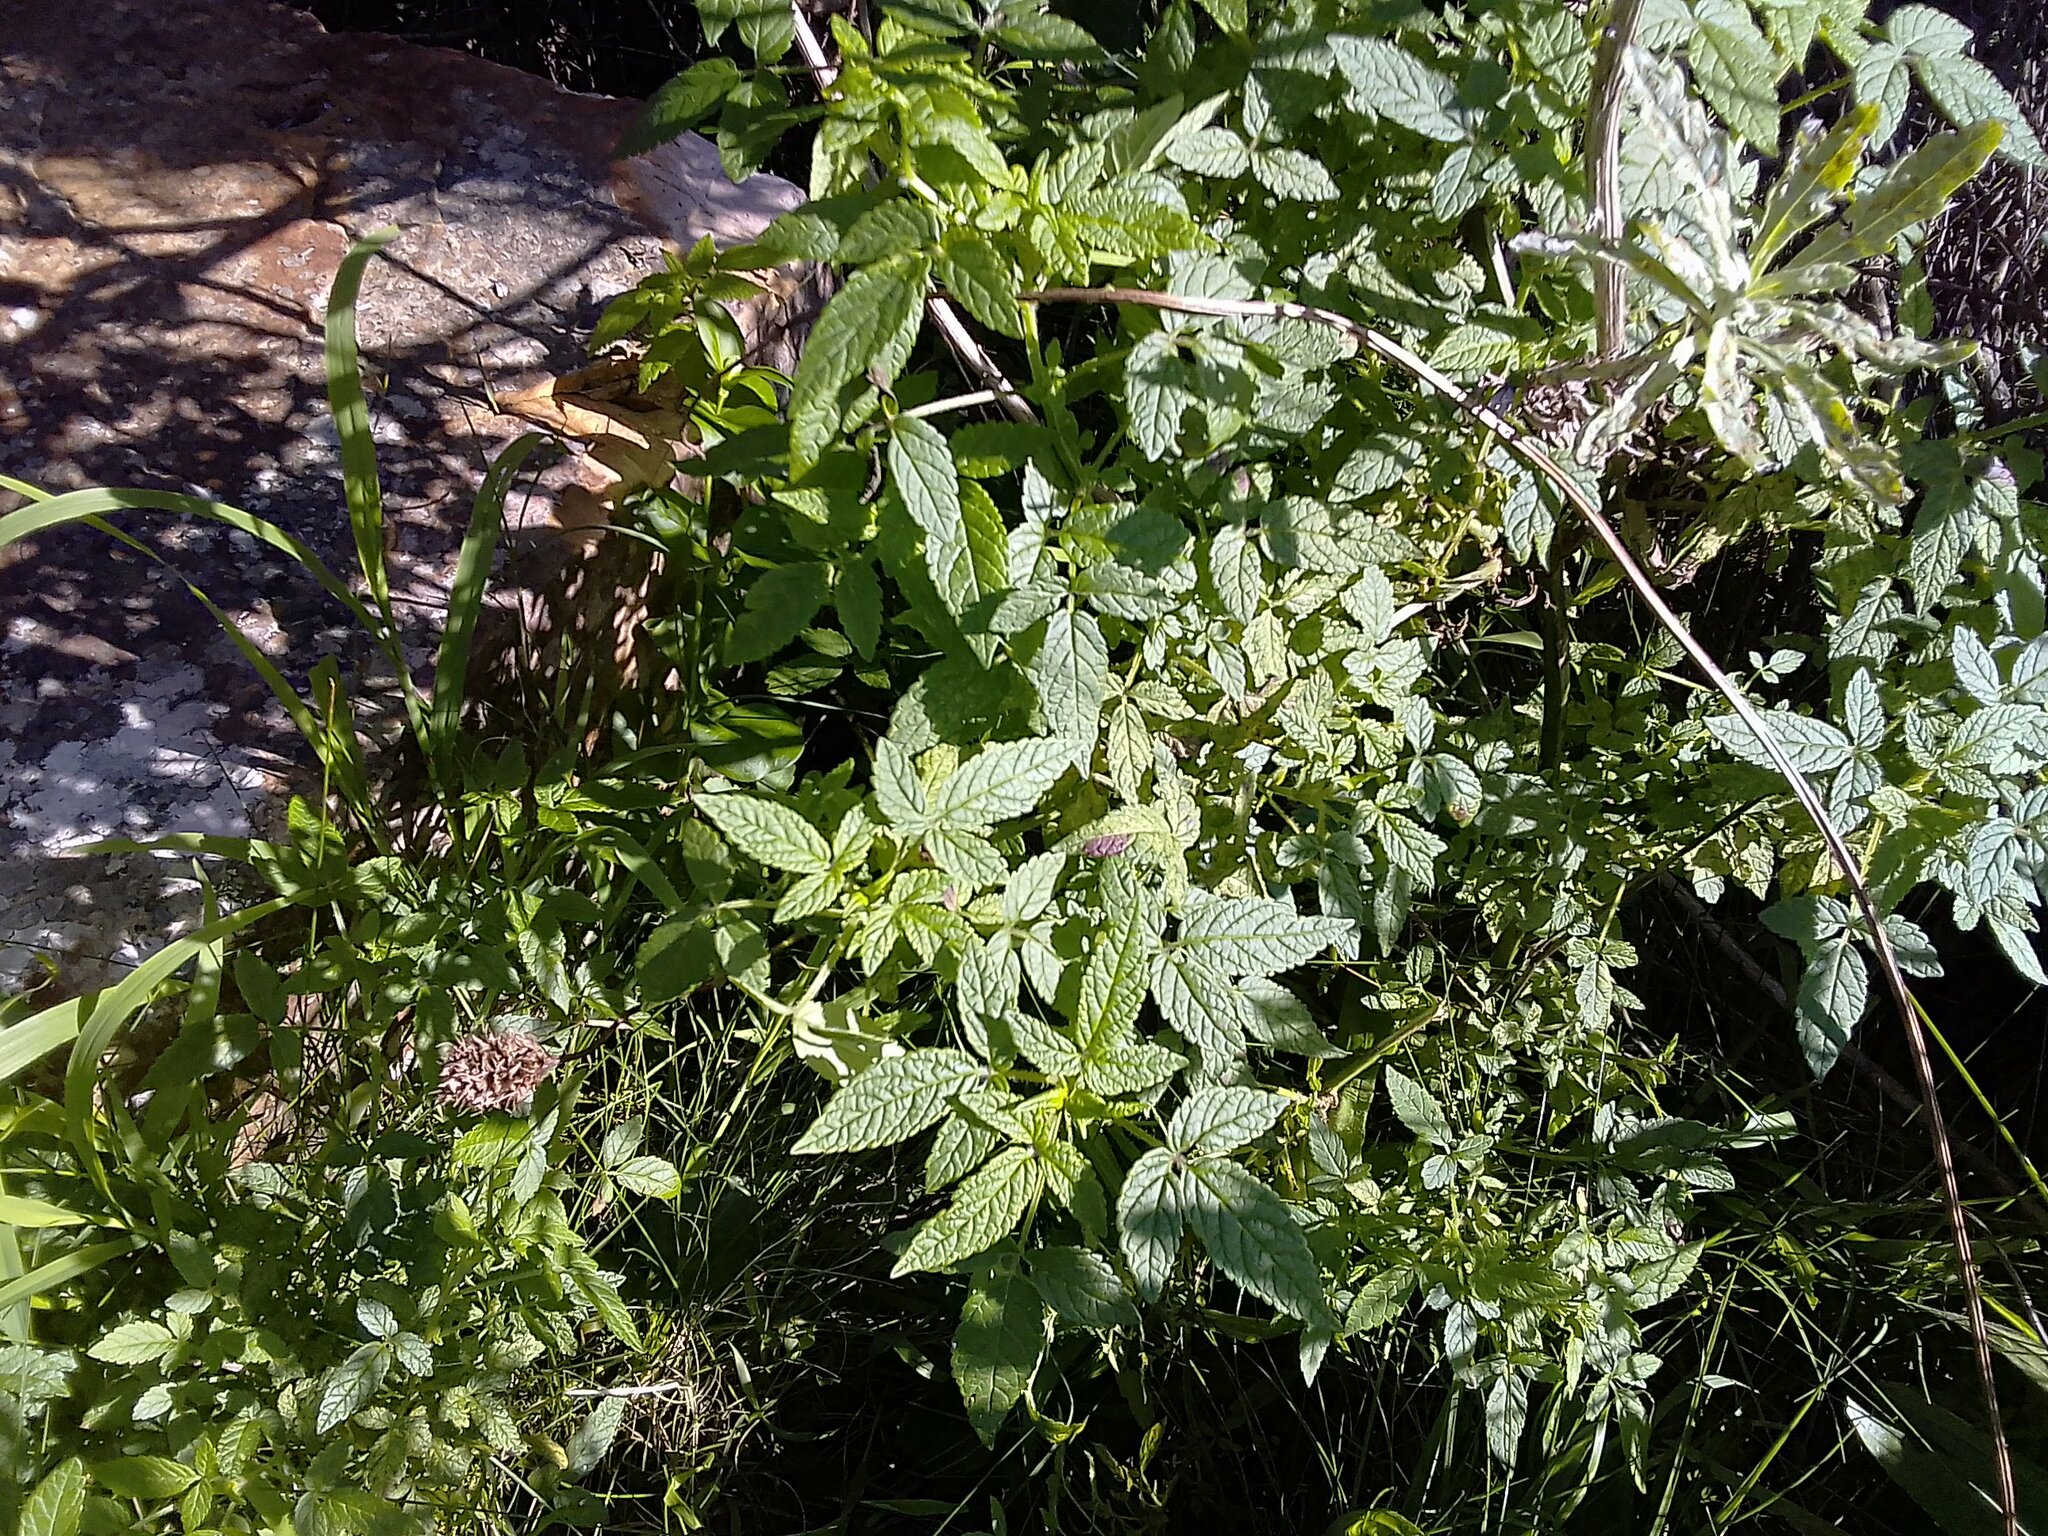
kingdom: Plantae
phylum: Tracheophyta
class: Magnoliopsida
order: Lamiales
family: Lamiaceae
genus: Cedronella
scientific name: Cedronella canariensis
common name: Canary islands balm
